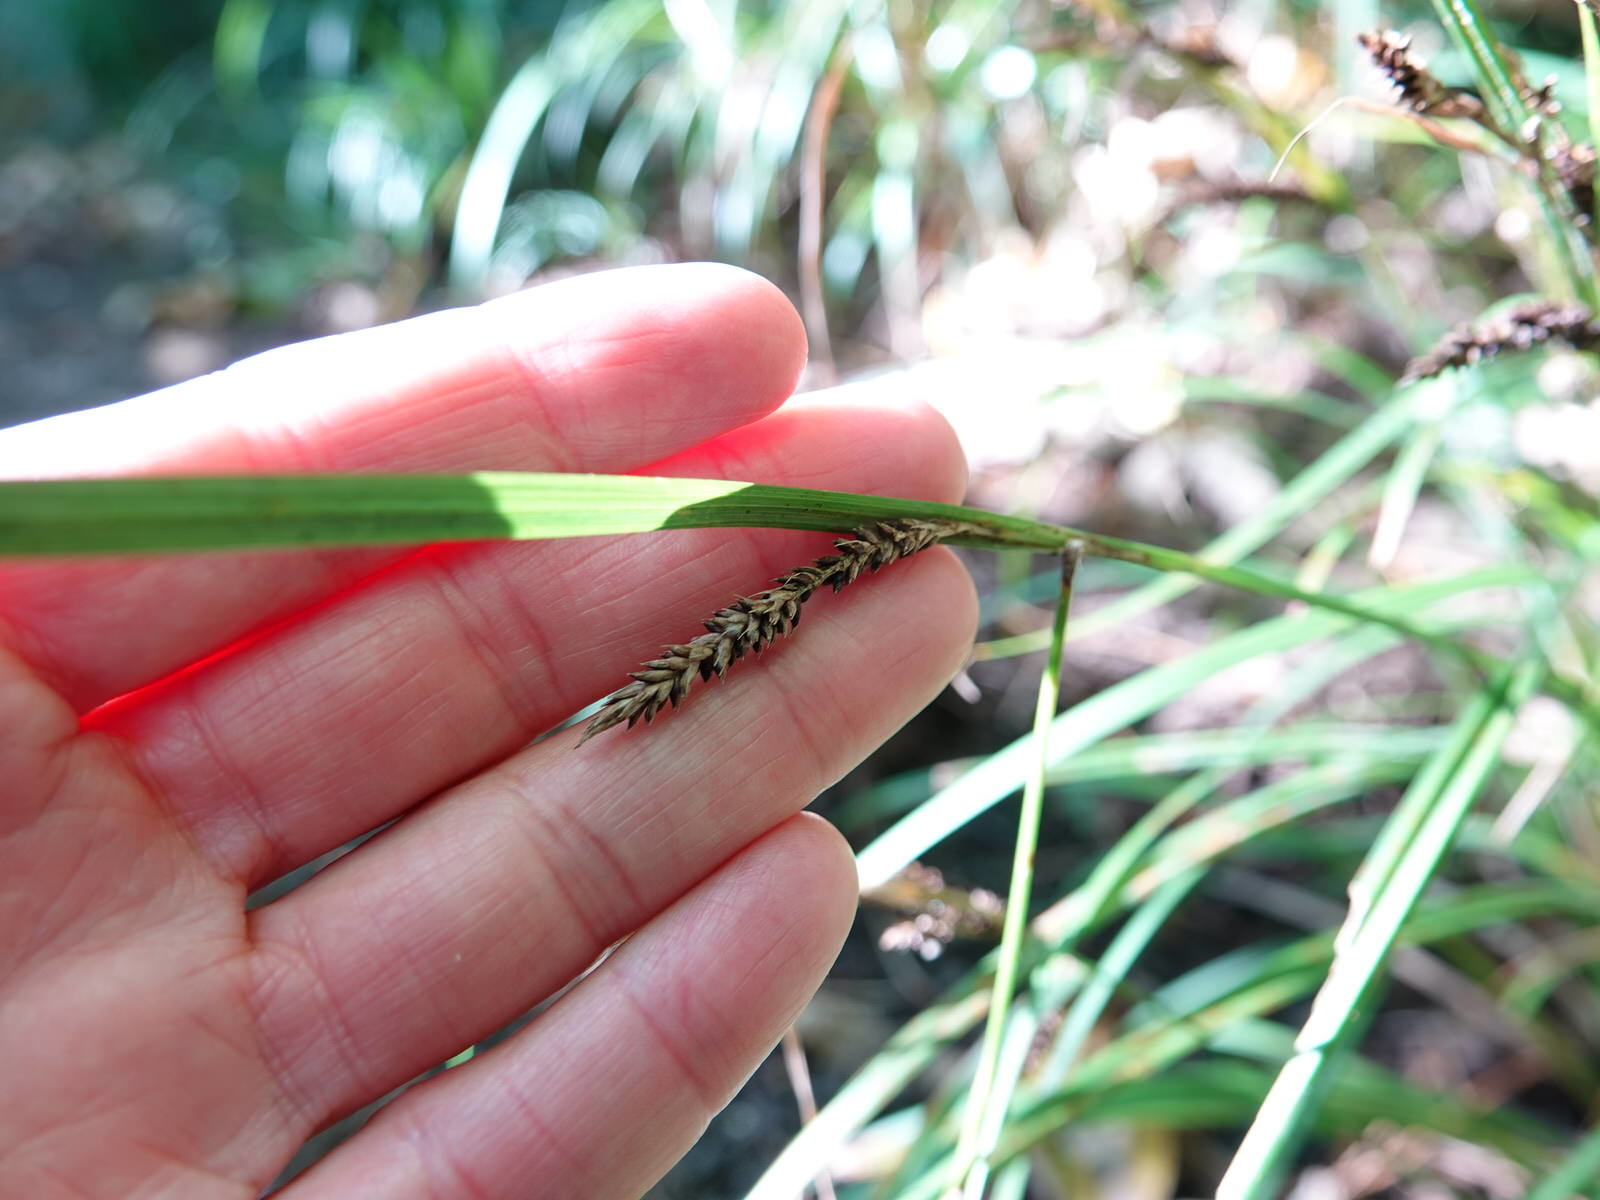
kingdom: Plantae
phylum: Tracheophyta
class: Liliopsida
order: Poales
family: Cyperaceae
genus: Carex
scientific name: Carex lambertiana
